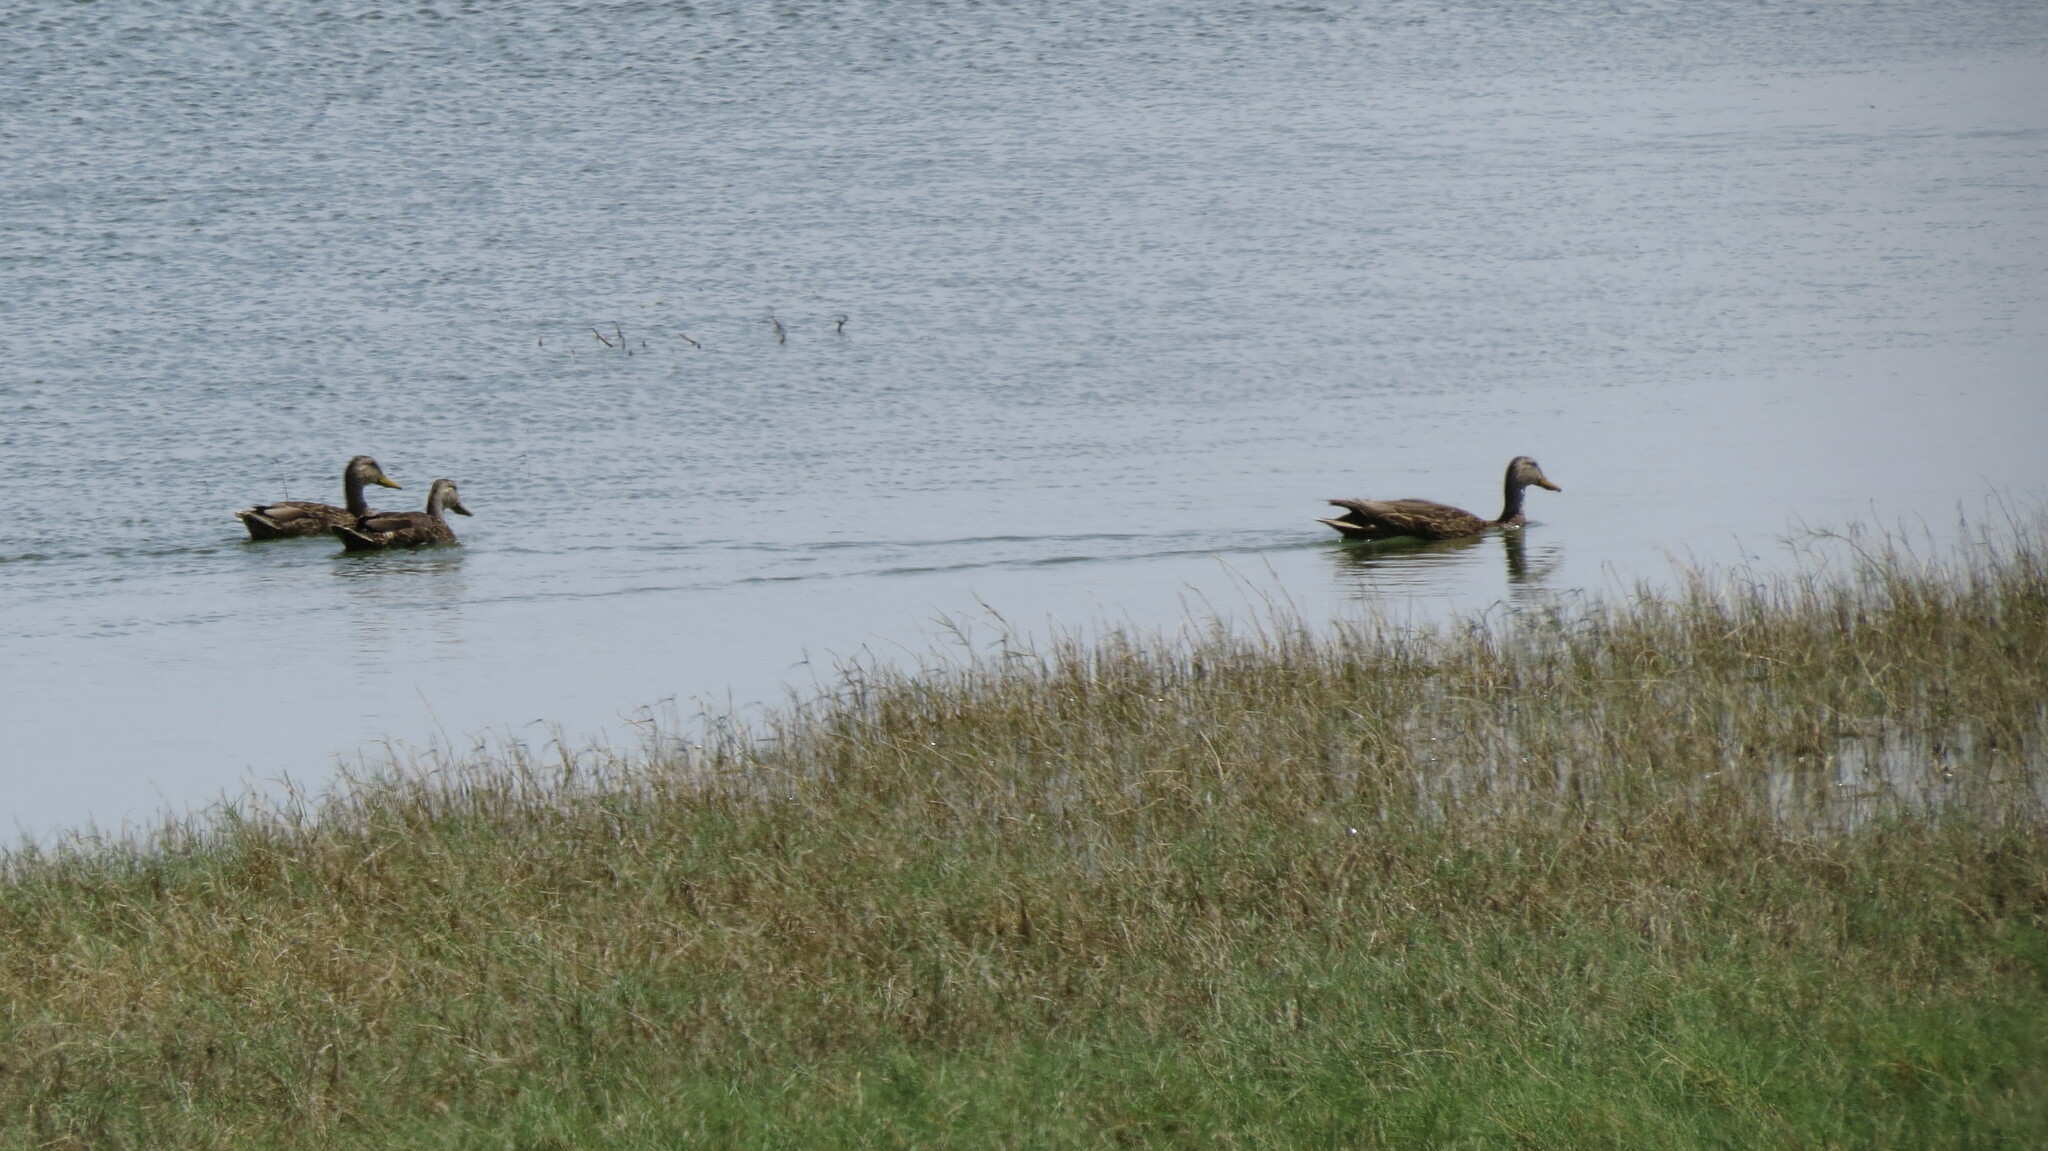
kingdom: Animalia
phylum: Chordata
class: Aves
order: Anseriformes
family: Anatidae
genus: Anas
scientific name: Anas diazi
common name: Mexican duck
